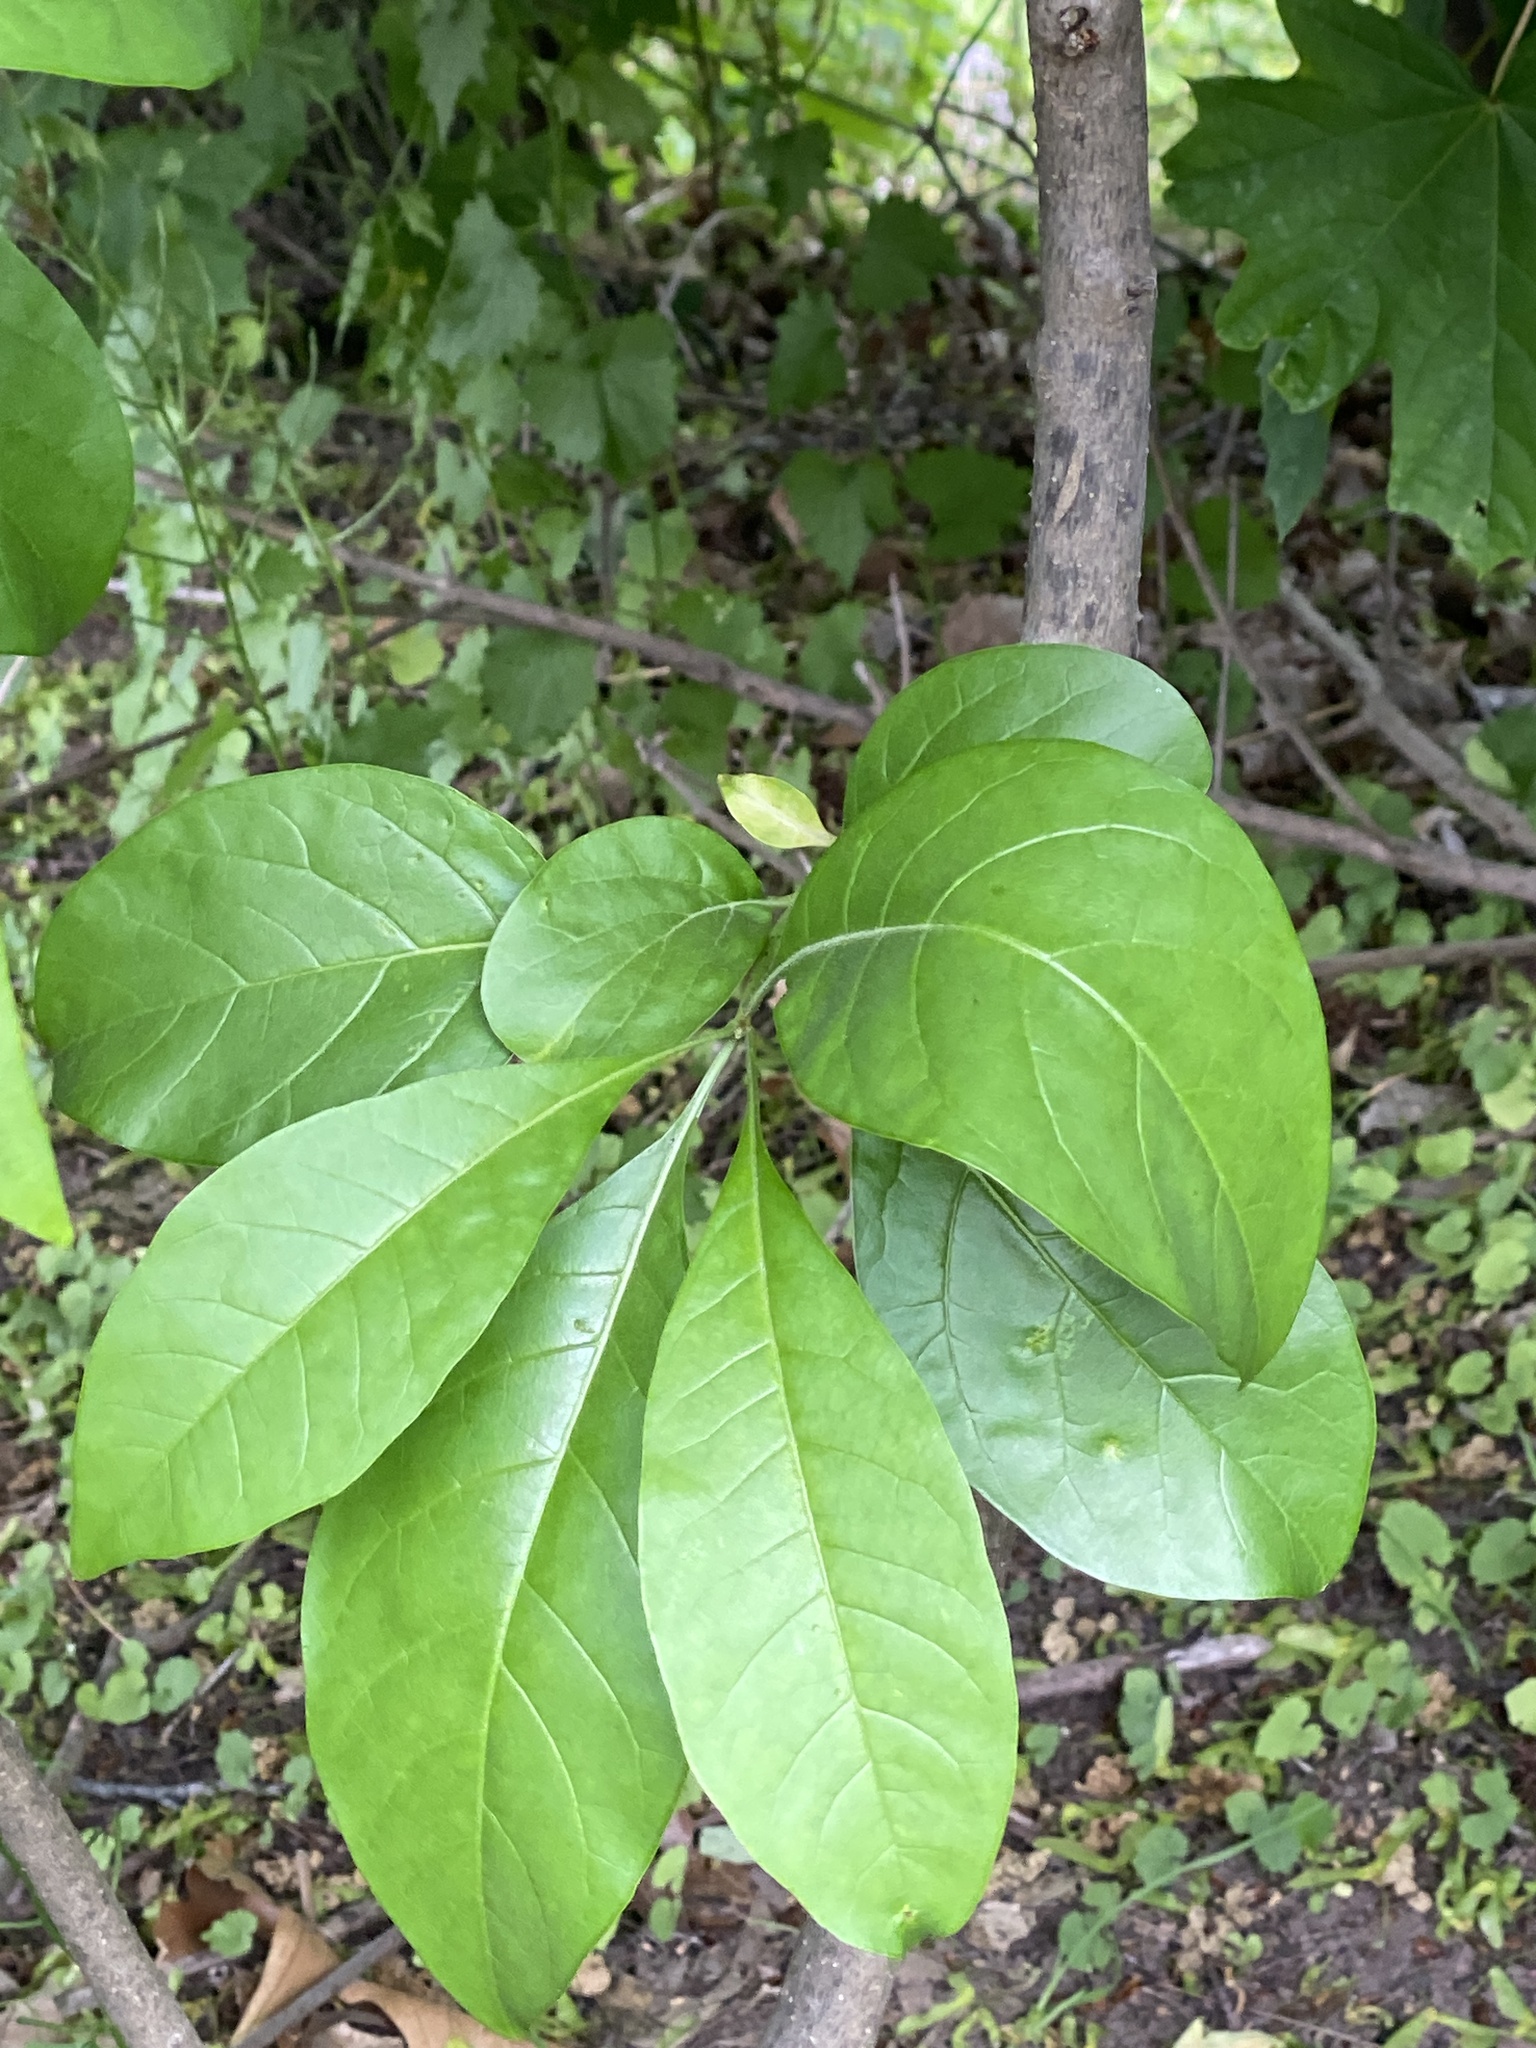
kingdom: Plantae
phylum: Tracheophyta
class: Magnoliopsida
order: Lamiales
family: Oleaceae
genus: Chionanthus
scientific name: Chionanthus virginicus
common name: American fringetree
